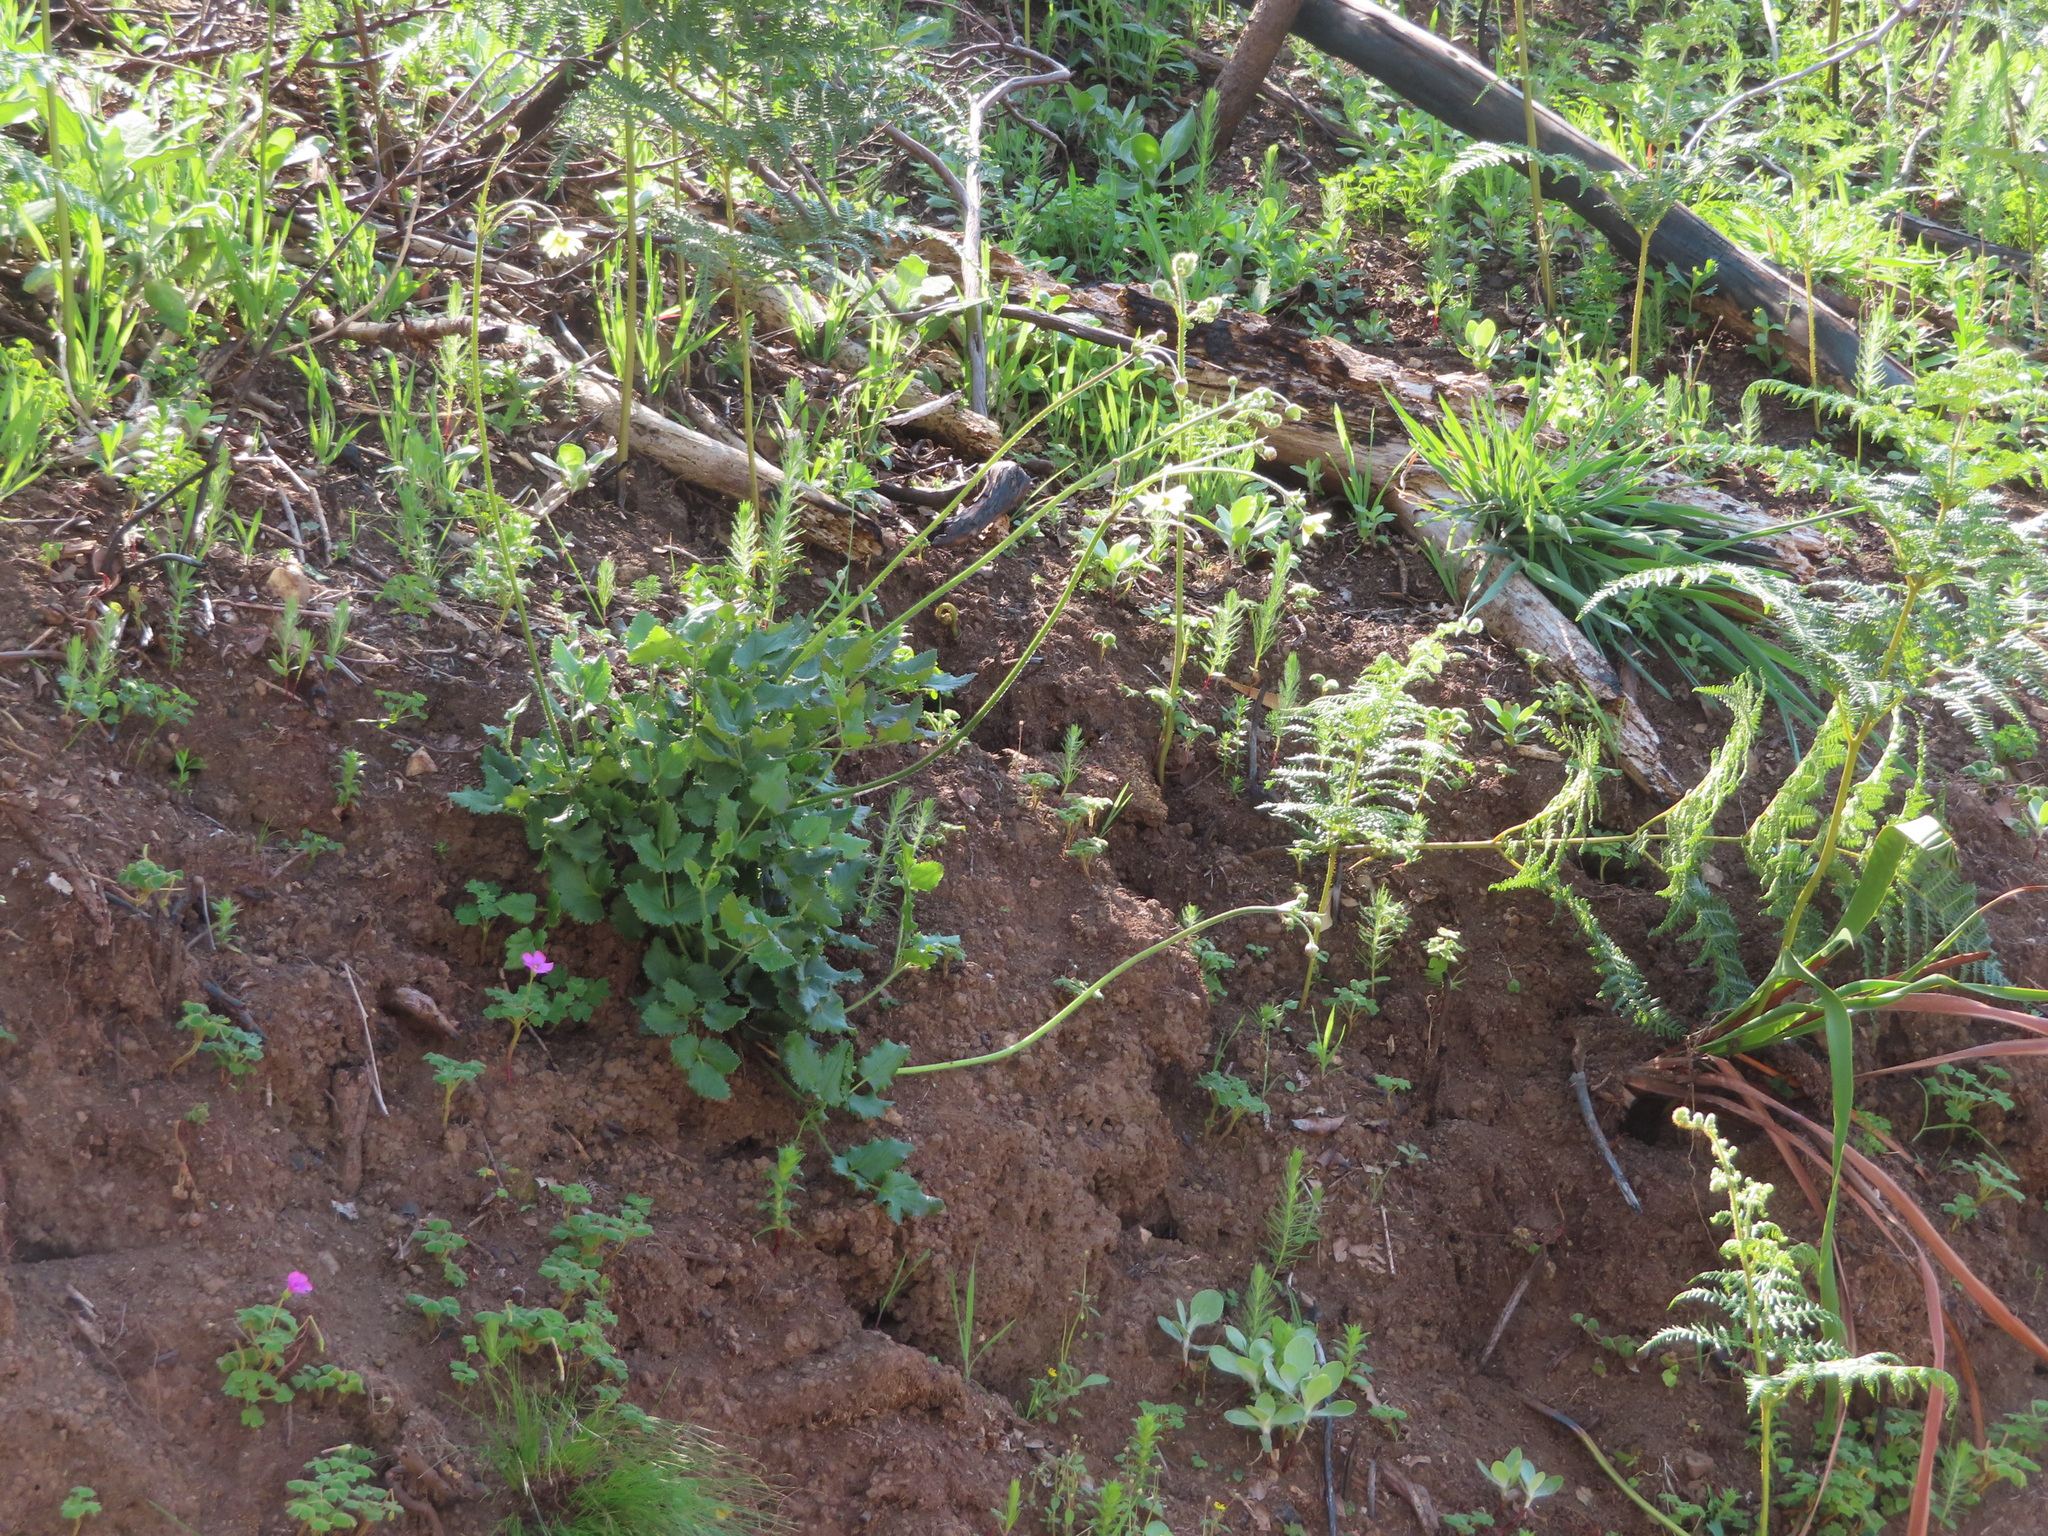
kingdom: Plantae
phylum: Tracheophyta
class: Magnoliopsida
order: Ranunculales
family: Ranunculaceae
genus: Knowltonia
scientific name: Knowltonia anemonoides
